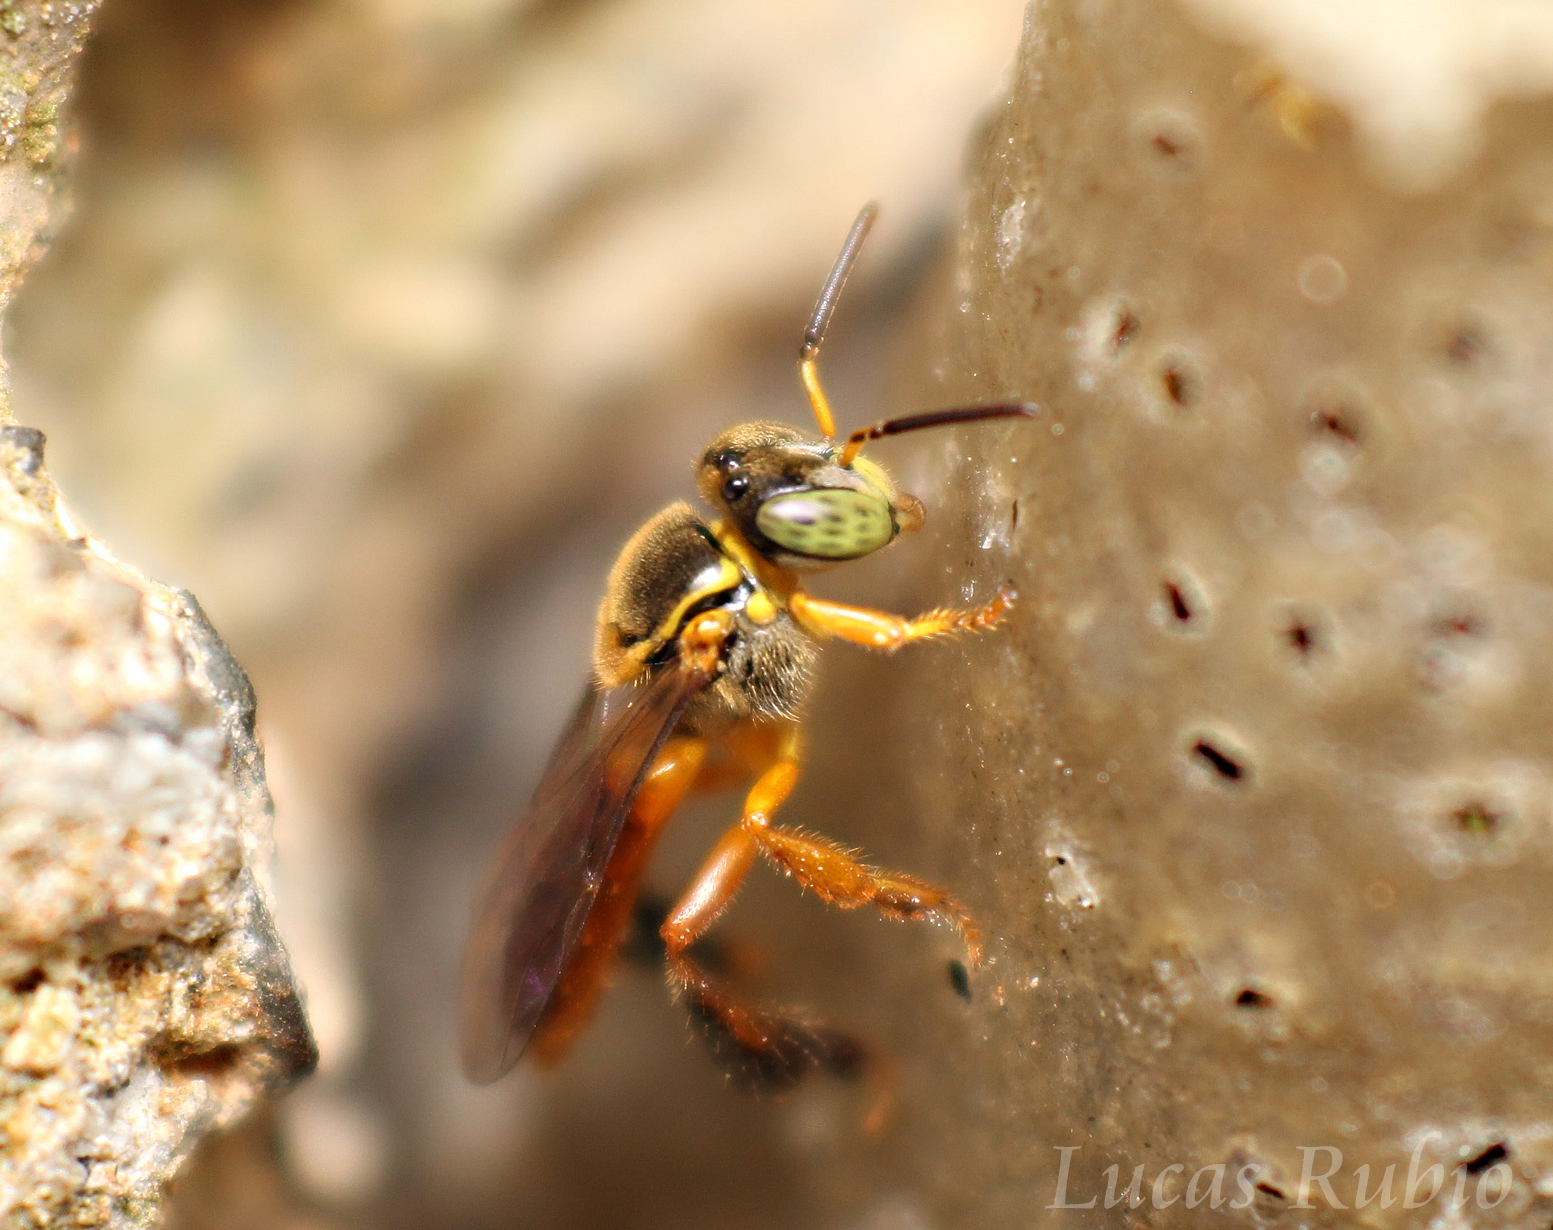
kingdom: Animalia
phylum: Arthropoda
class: Insecta
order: Hymenoptera
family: Apidae
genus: Tetragonisca
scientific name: Tetragonisca angustula
